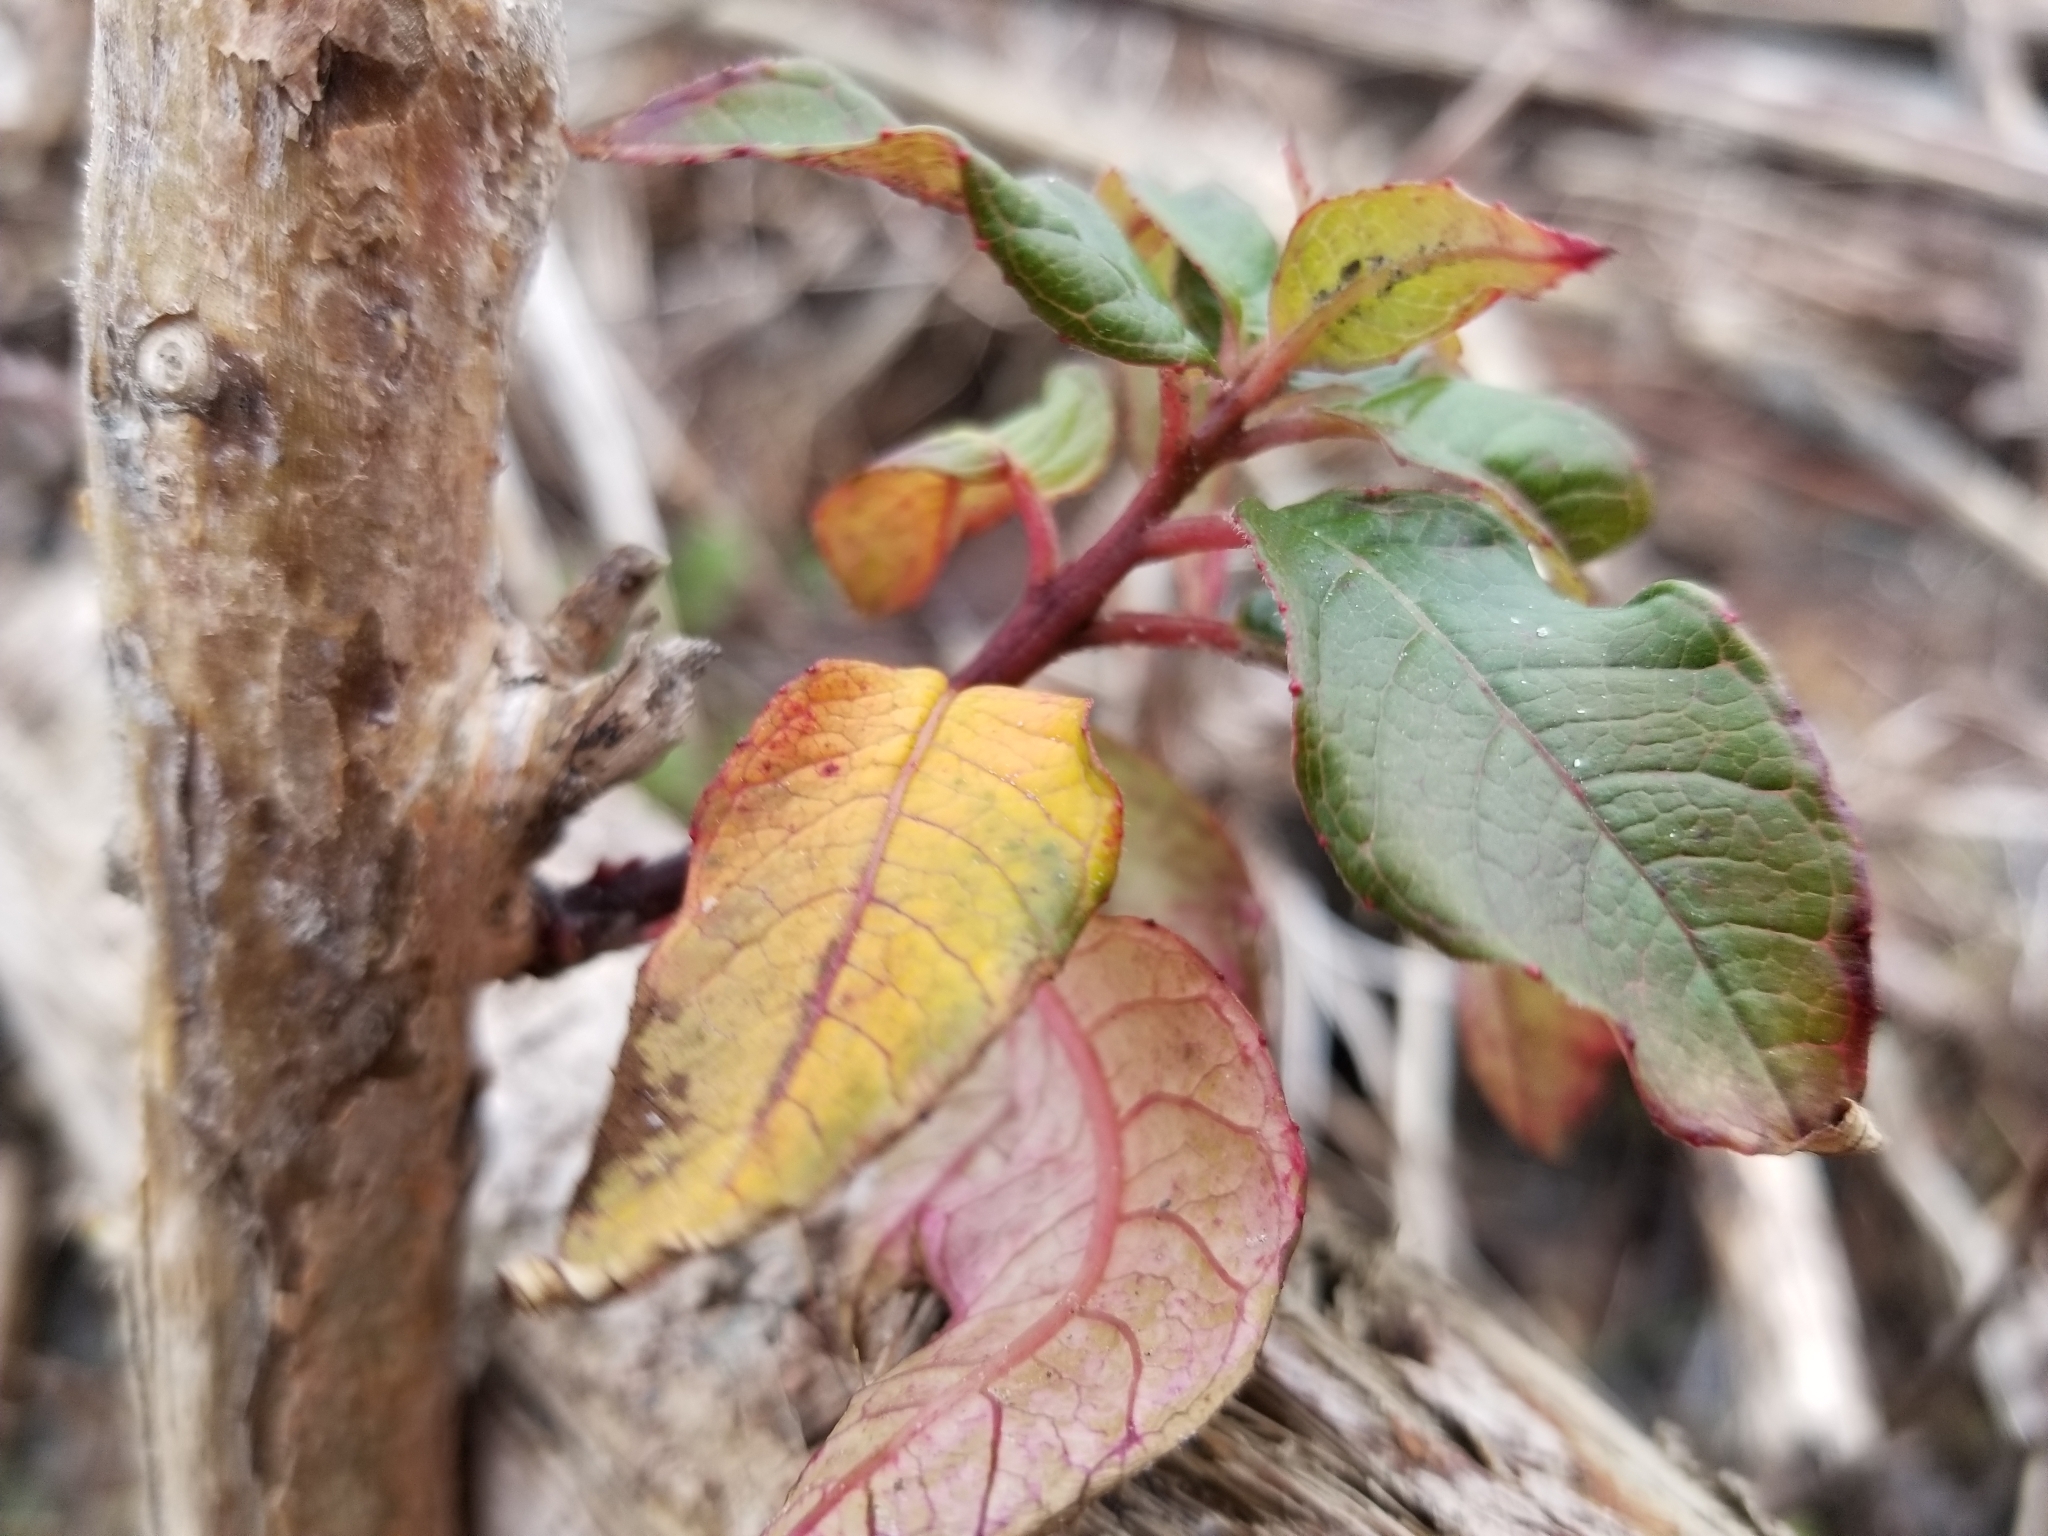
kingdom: Plantae
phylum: Tracheophyta
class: Magnoliopsida
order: Myrtales
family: Onagraceae
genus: Fuchsia
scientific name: Fuchsia excorticata
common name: Tree fuchsia
